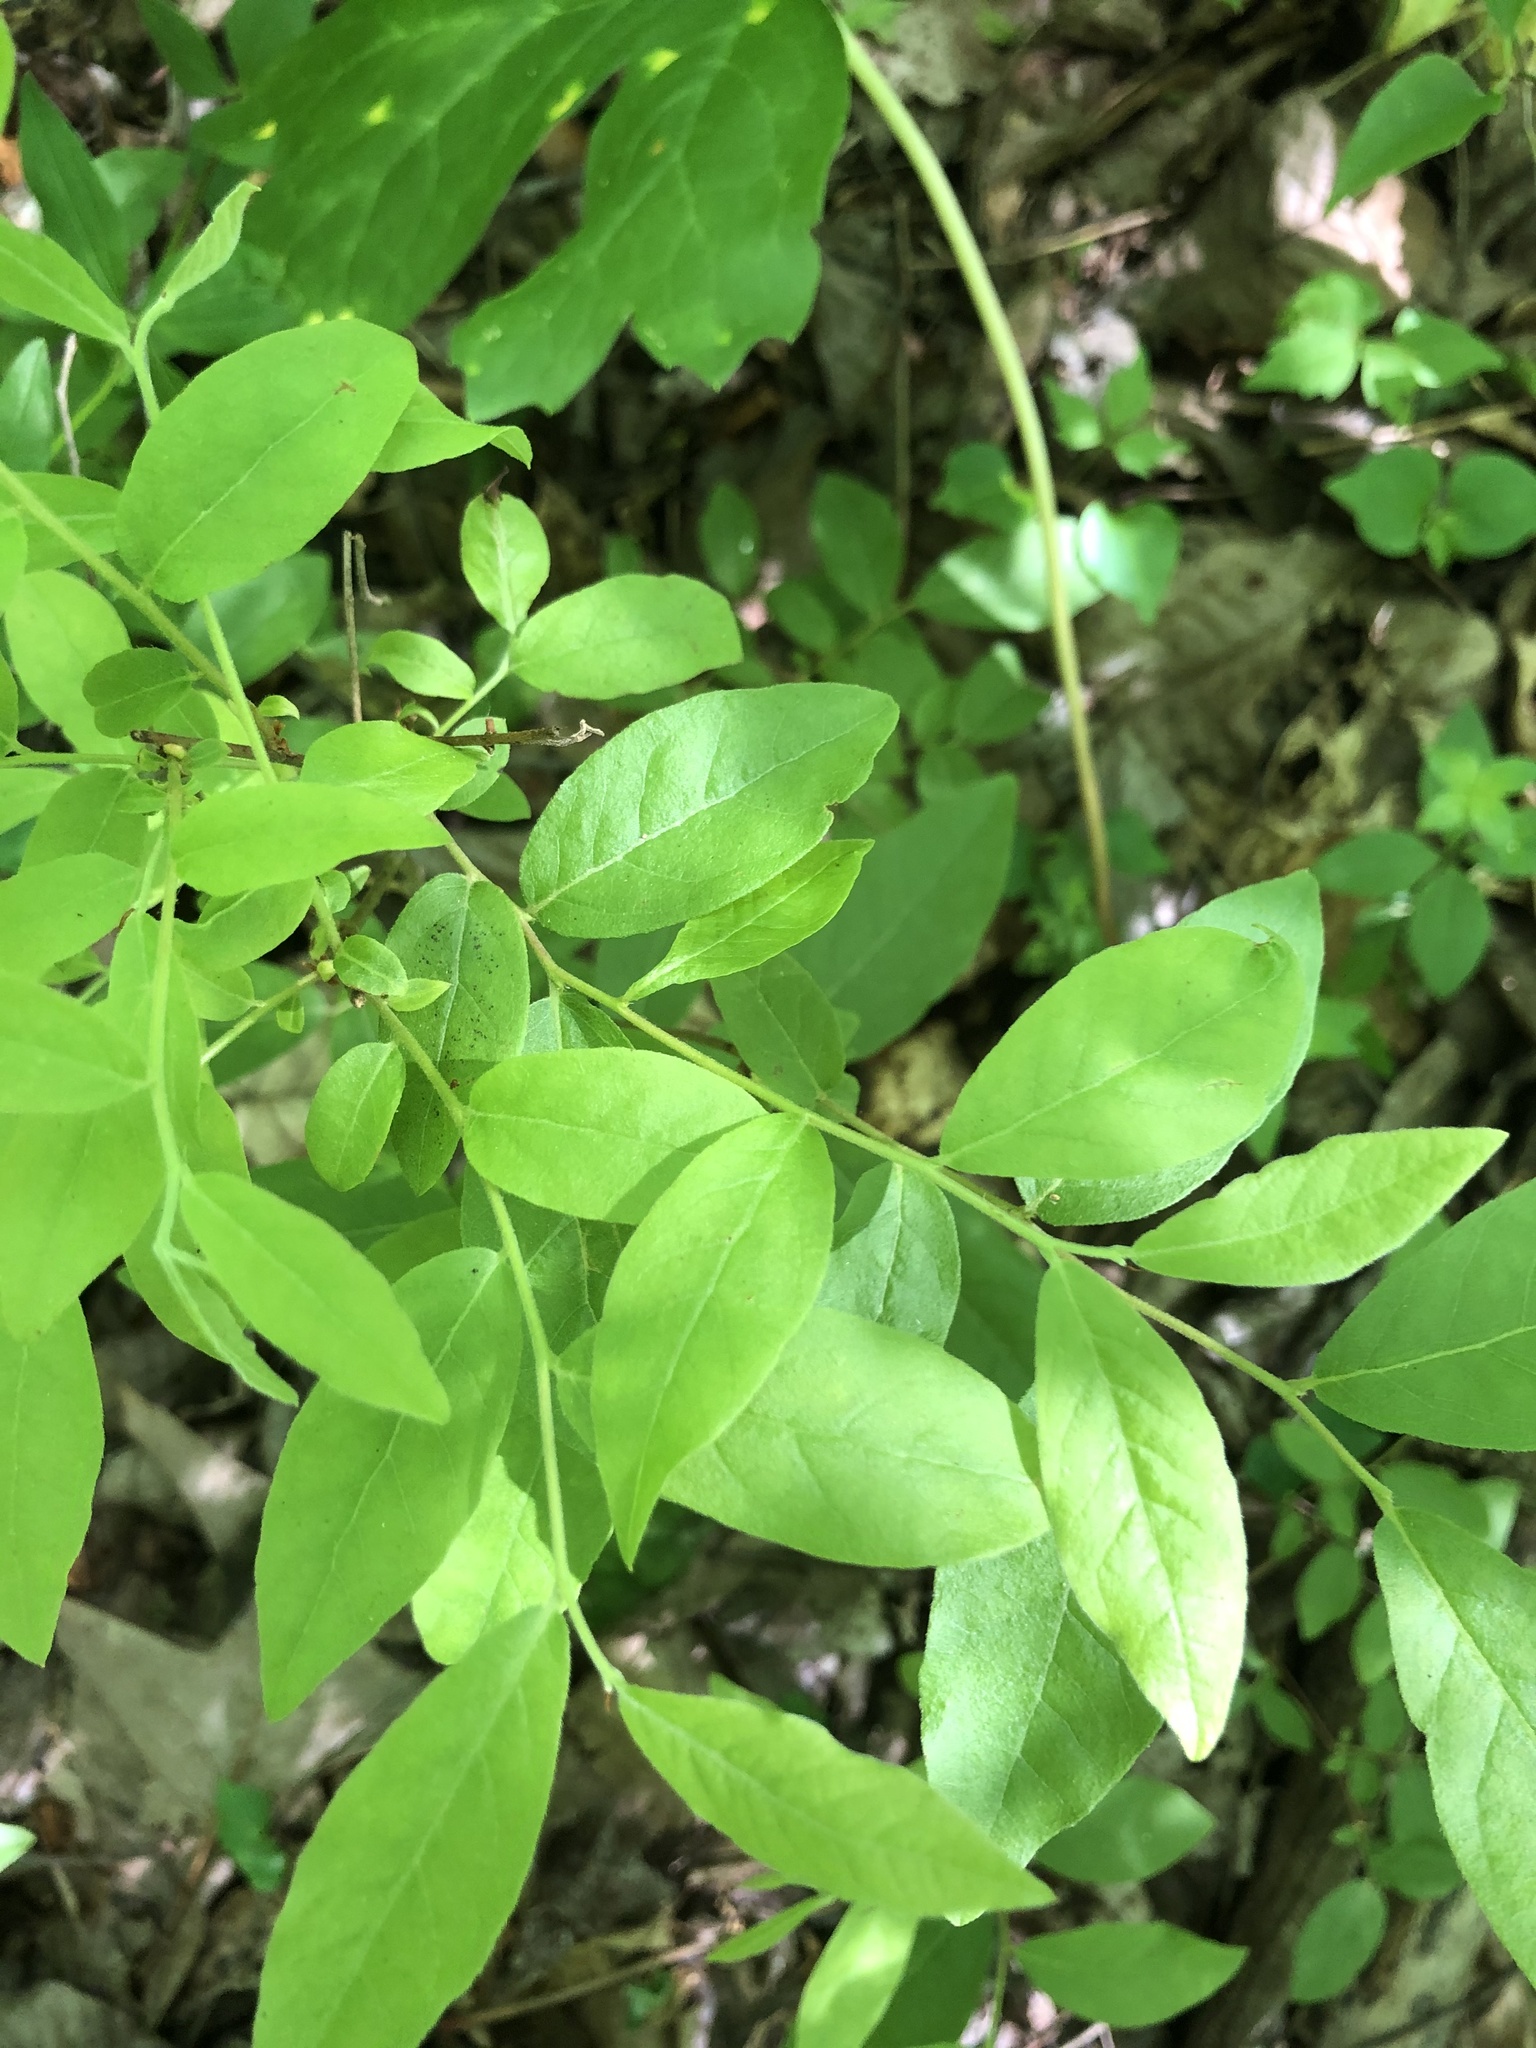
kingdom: Plantae
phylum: Tracheophyta
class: Magnoliopsida
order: Ericales
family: Ericaceae
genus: Vaccinium
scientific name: Vaccinium stamineum
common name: Deerberry
